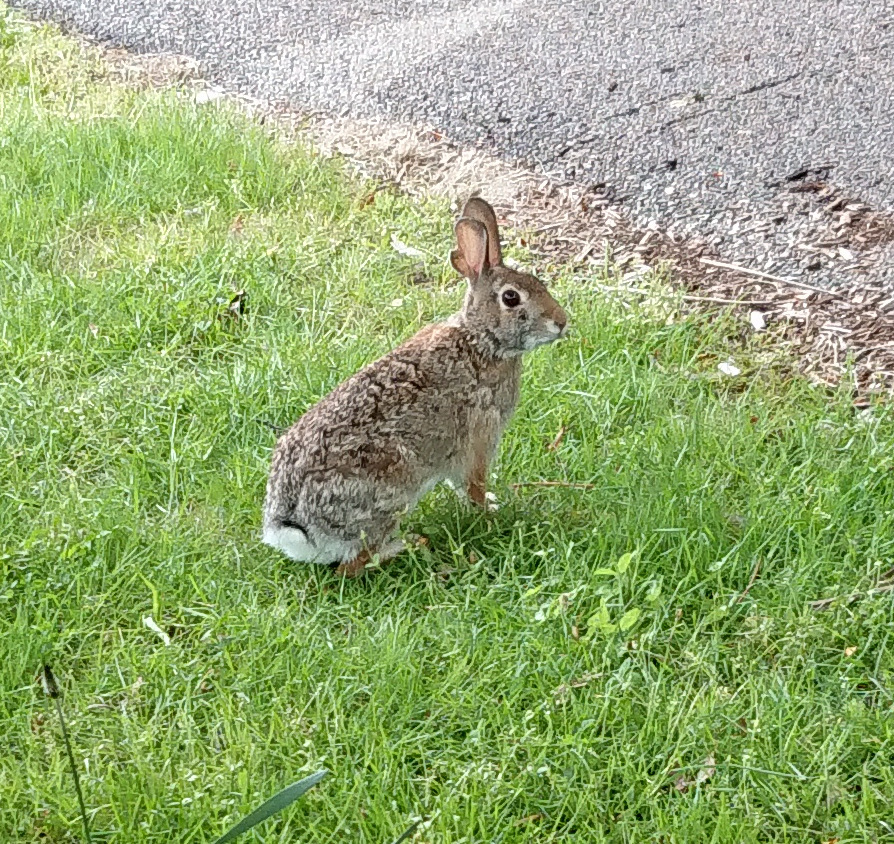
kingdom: Animalia
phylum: Chordata
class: Mammalia
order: Lagomorpha
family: Leporidae
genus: Sylvilagus
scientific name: Sylvilagus floridanus
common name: Eastern cottontail
